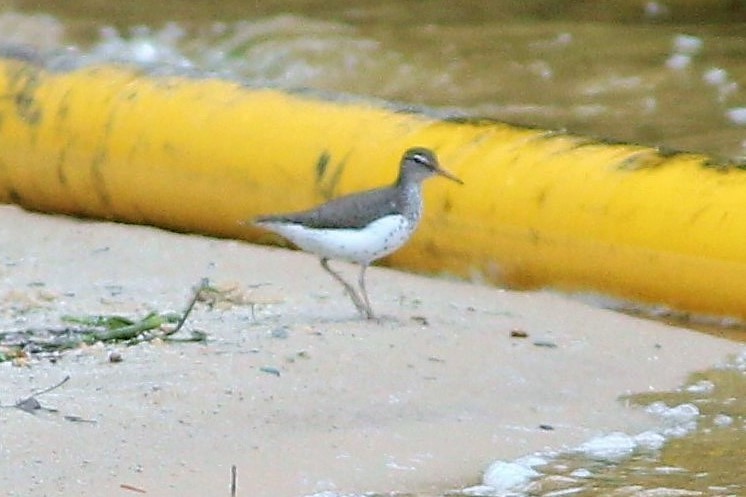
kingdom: Animalia
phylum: Chordata
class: Aves
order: Charadriiformes
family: Scolopacidae
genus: Actitis
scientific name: Actitis macularius
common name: Spotted sandpiper
